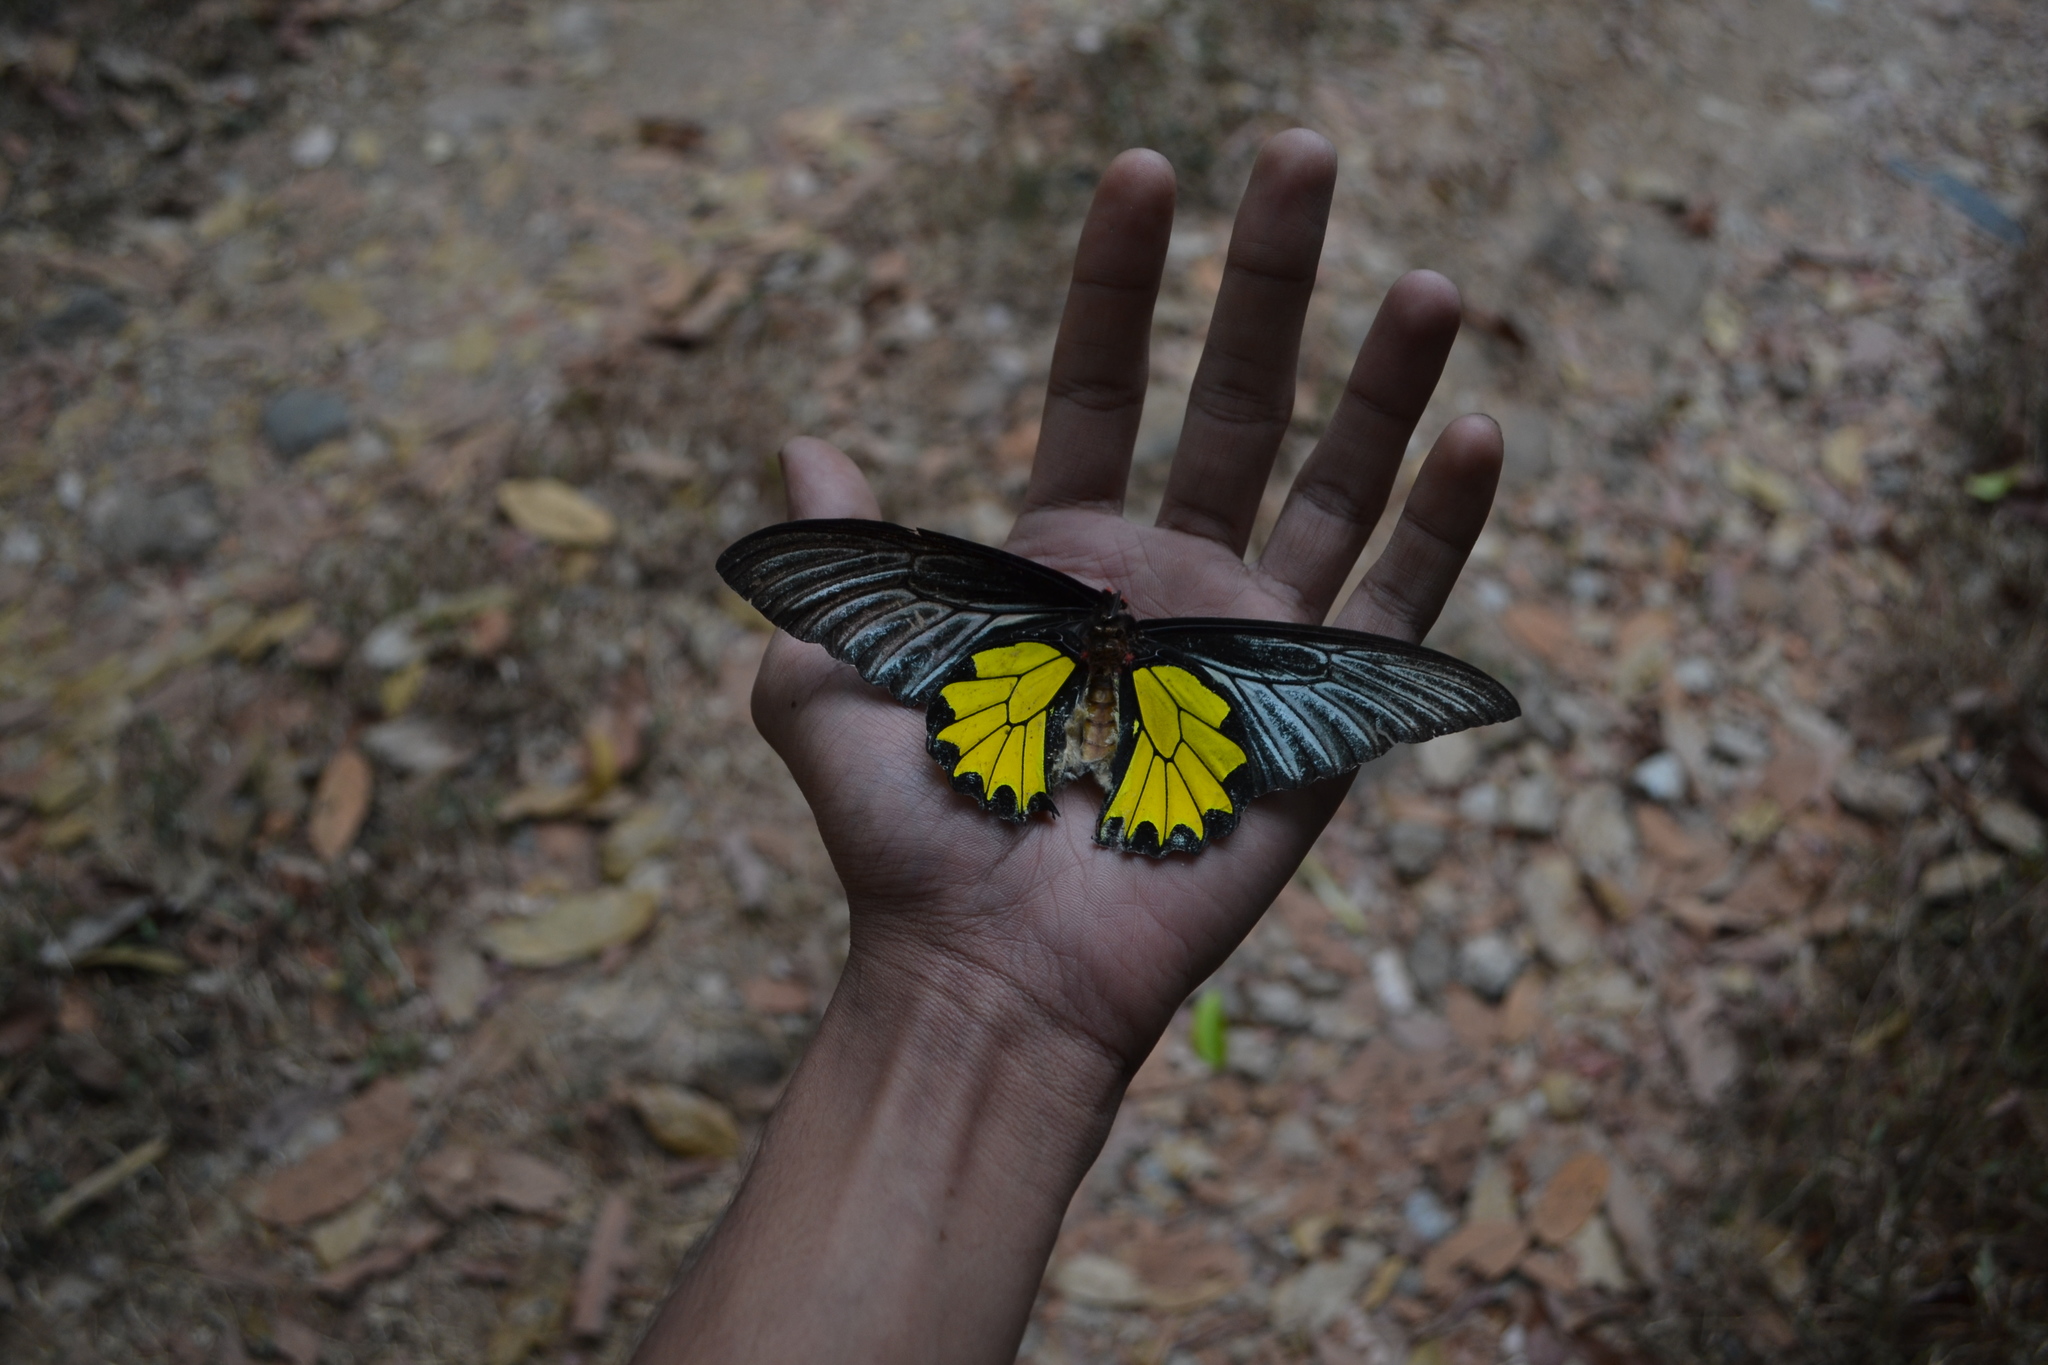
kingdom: Animalia
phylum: Arthropoda
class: Insecta
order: Lepidoptera
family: Papilionidae
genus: Troides
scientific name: Troides minos
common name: Malabar birdwing
